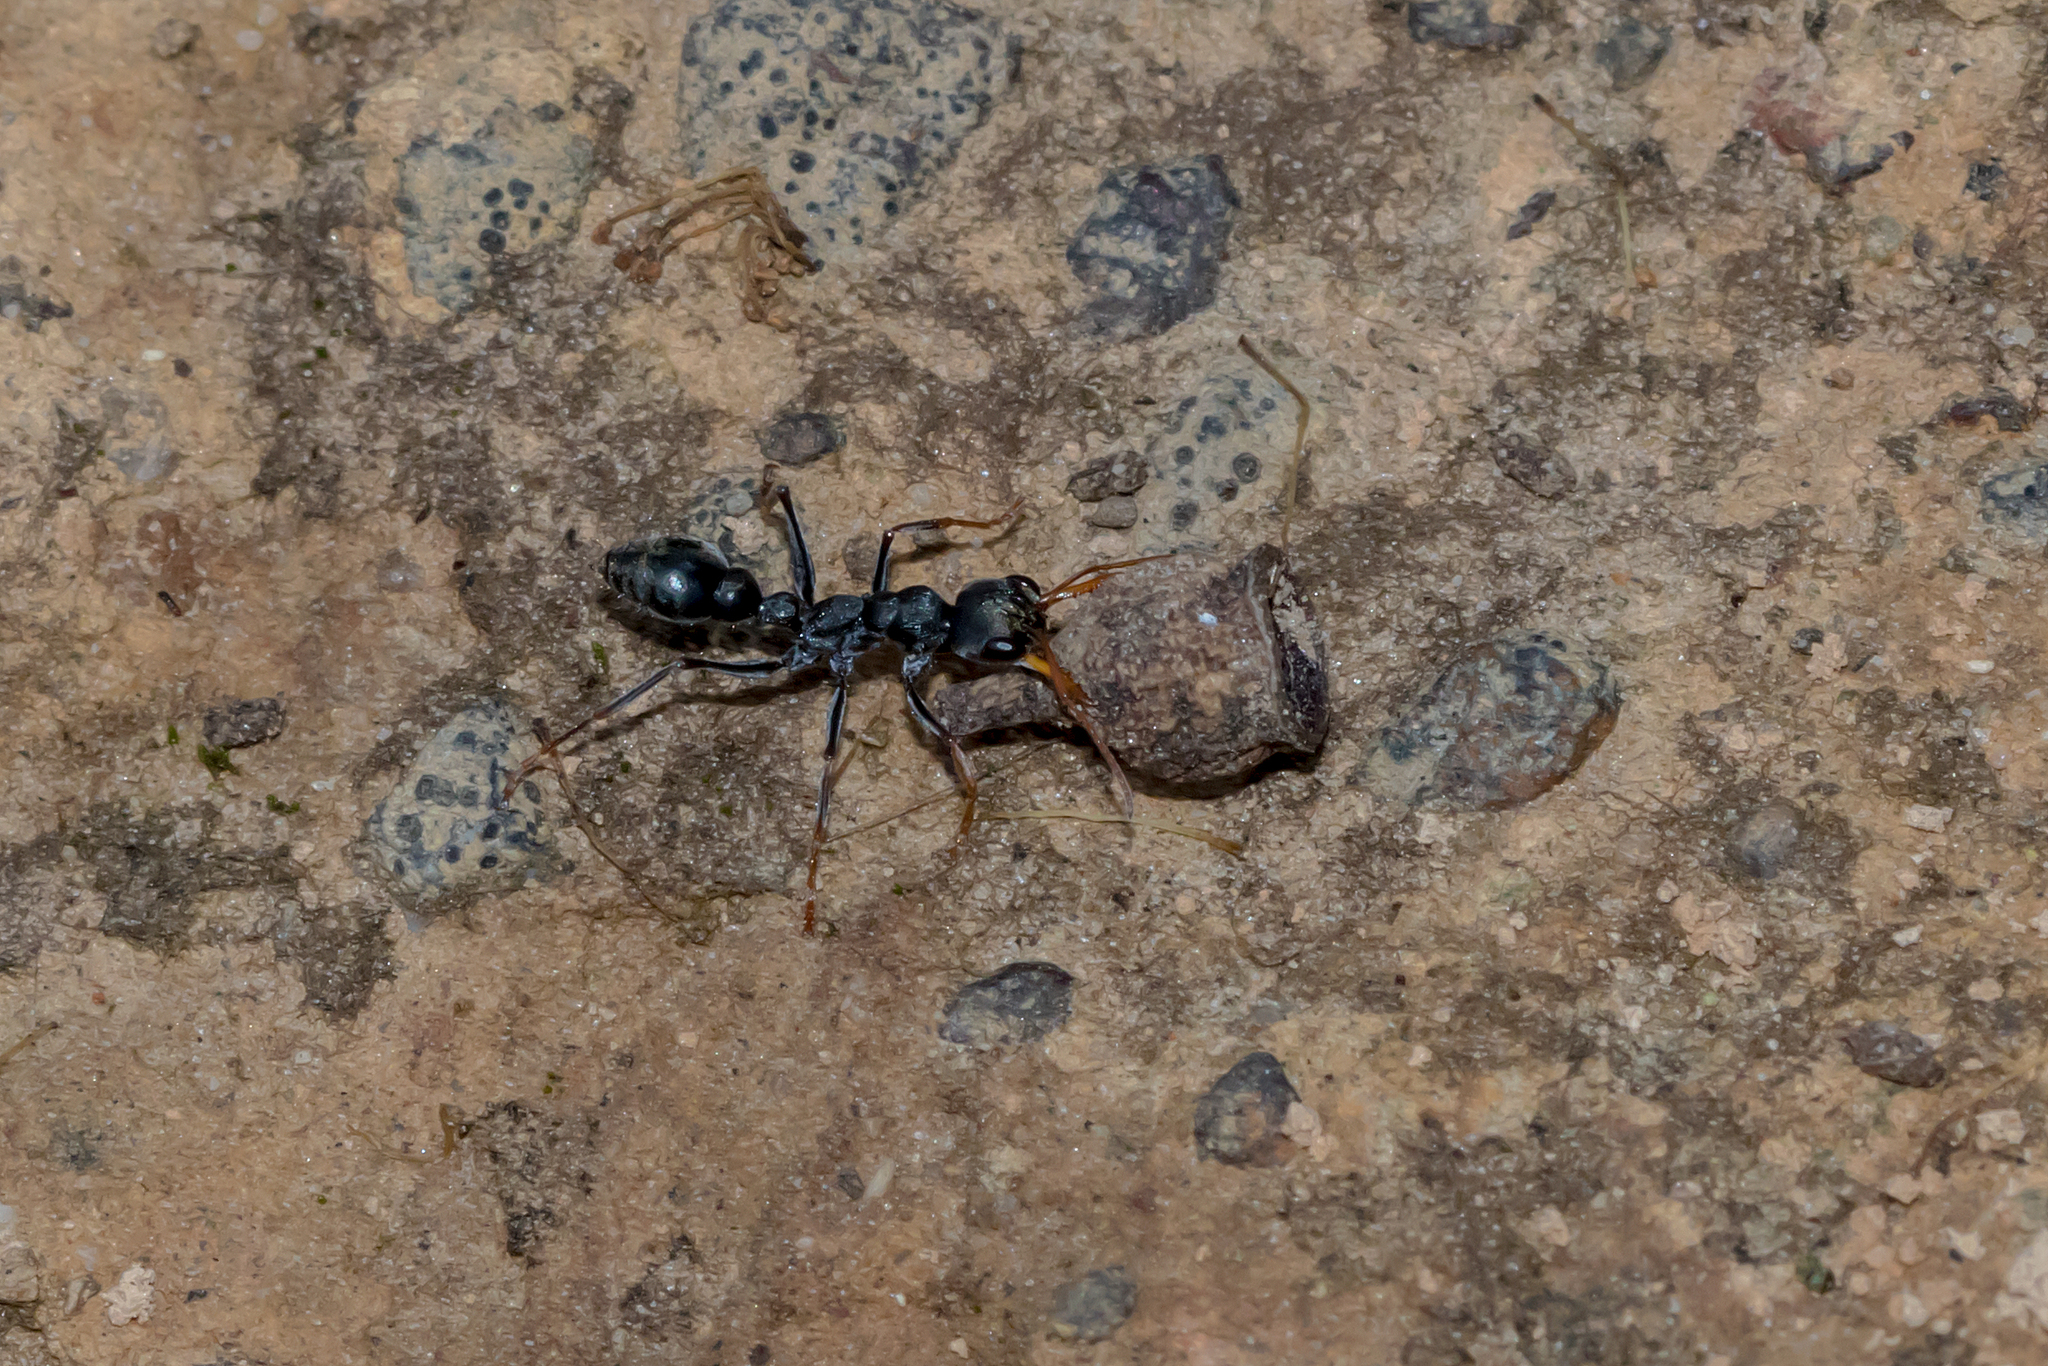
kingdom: Animalia
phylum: Arthropoda
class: Insecta
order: Hymenoptera
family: Formicidae
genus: Myrmecia
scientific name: Myrmecia pilosula
